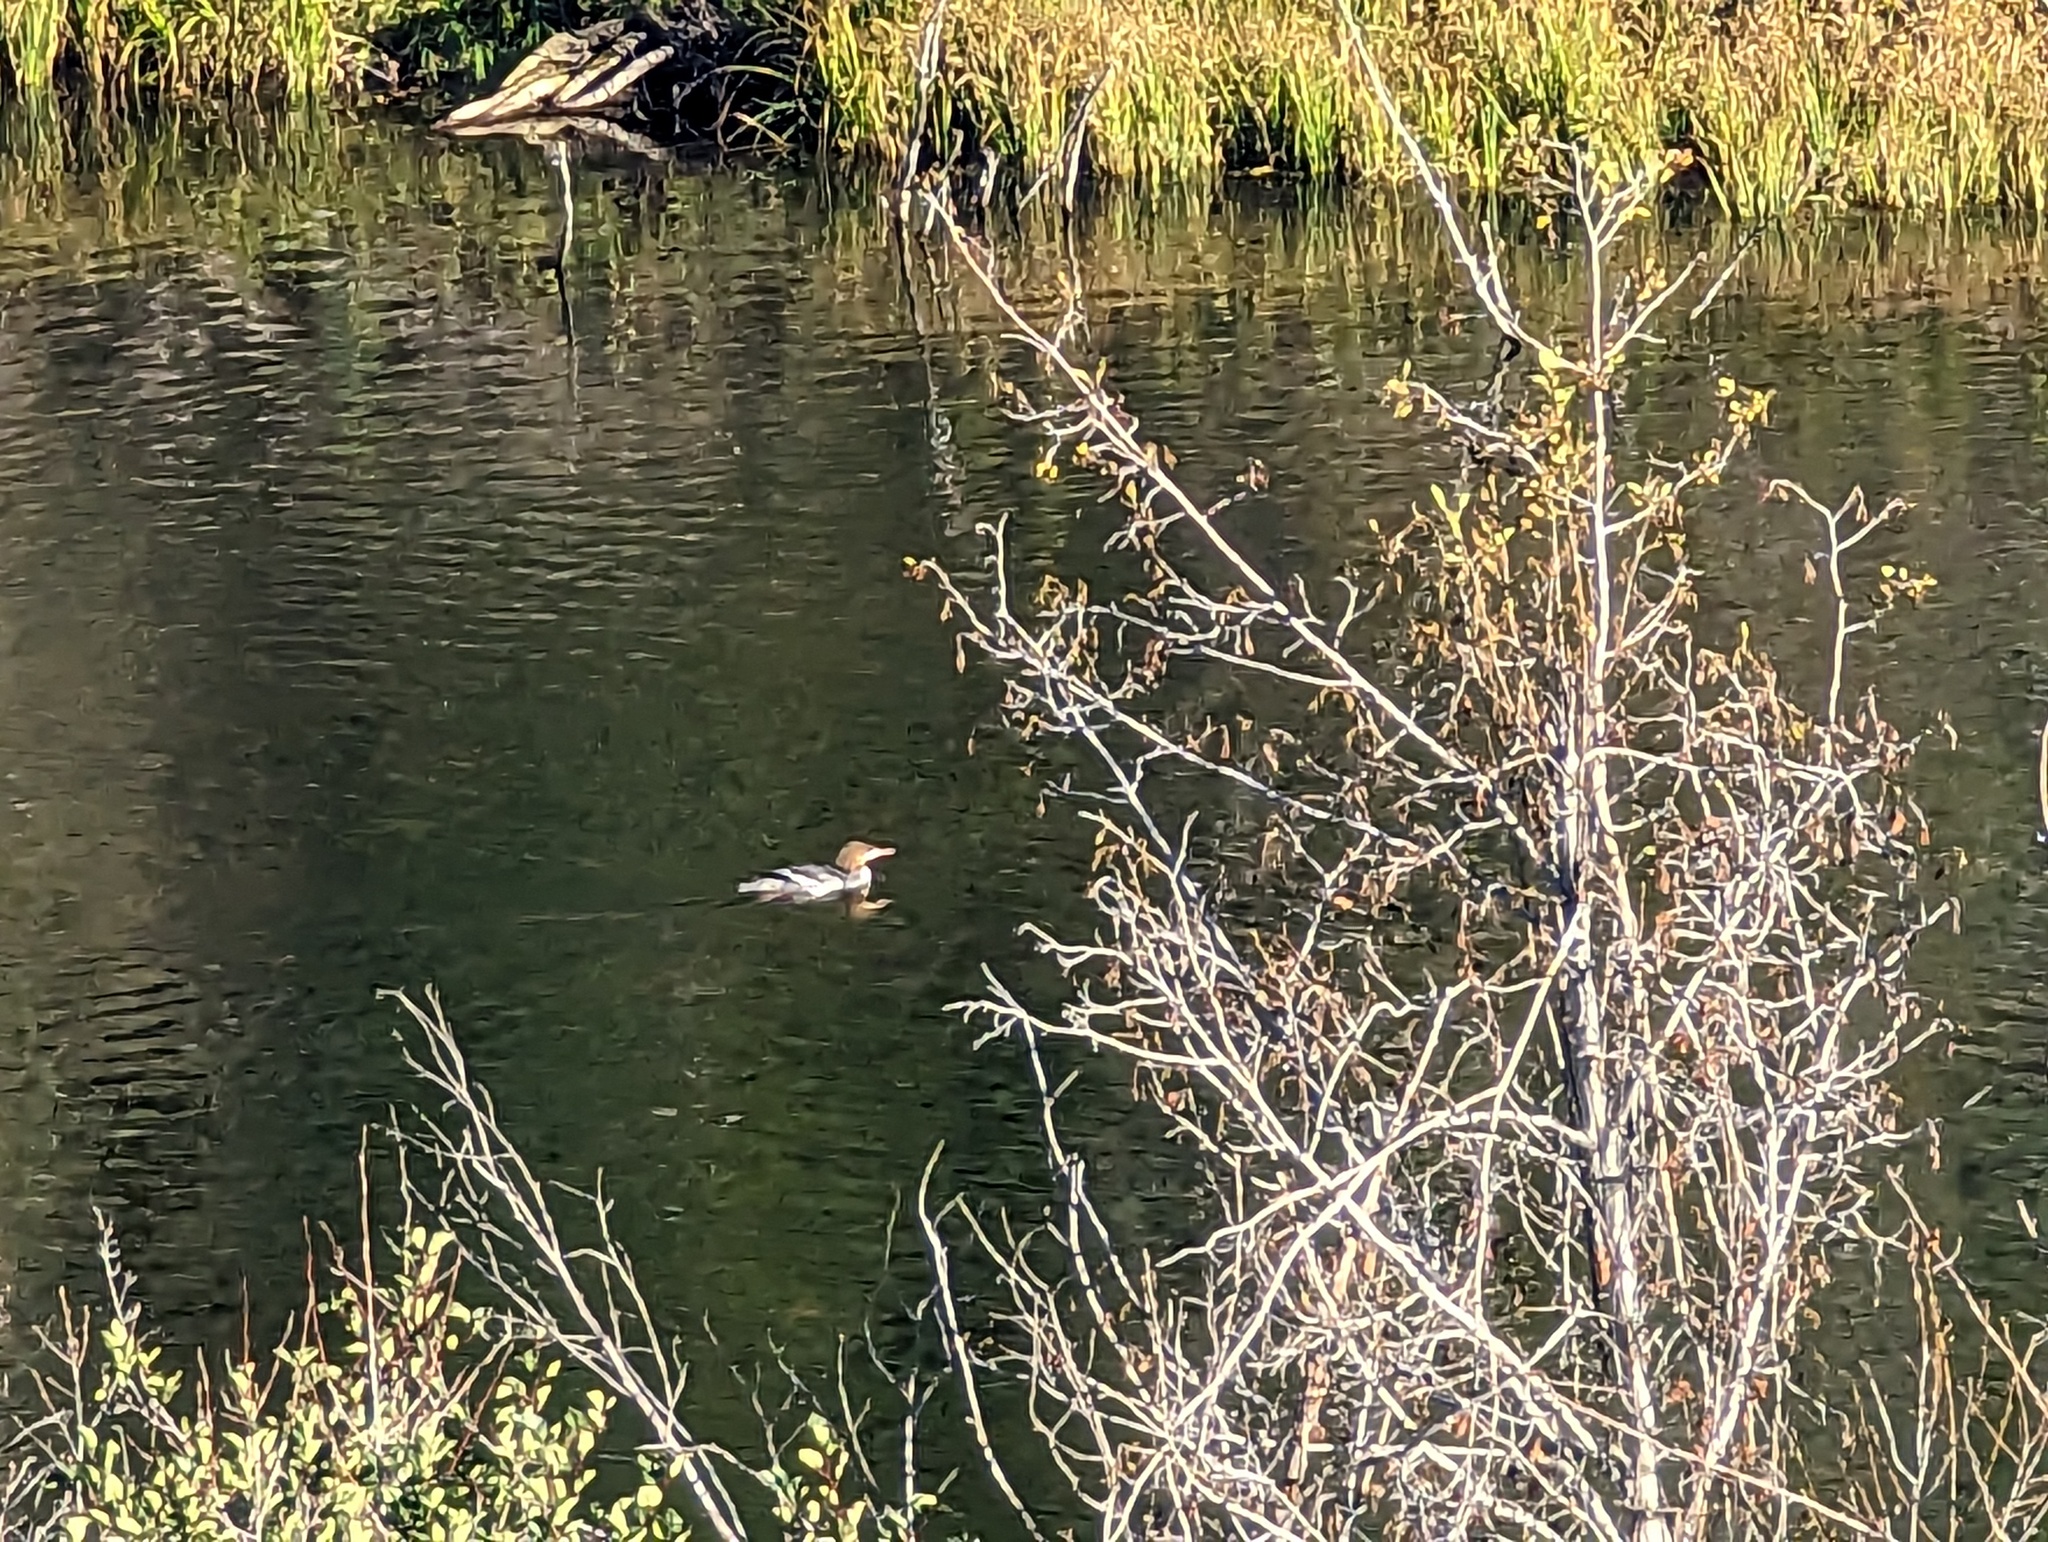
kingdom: Animalia
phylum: Chordata
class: Aves
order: Anseriformes
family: Anatidae
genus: Mergus
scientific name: Mergus merganser
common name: Common merganser
